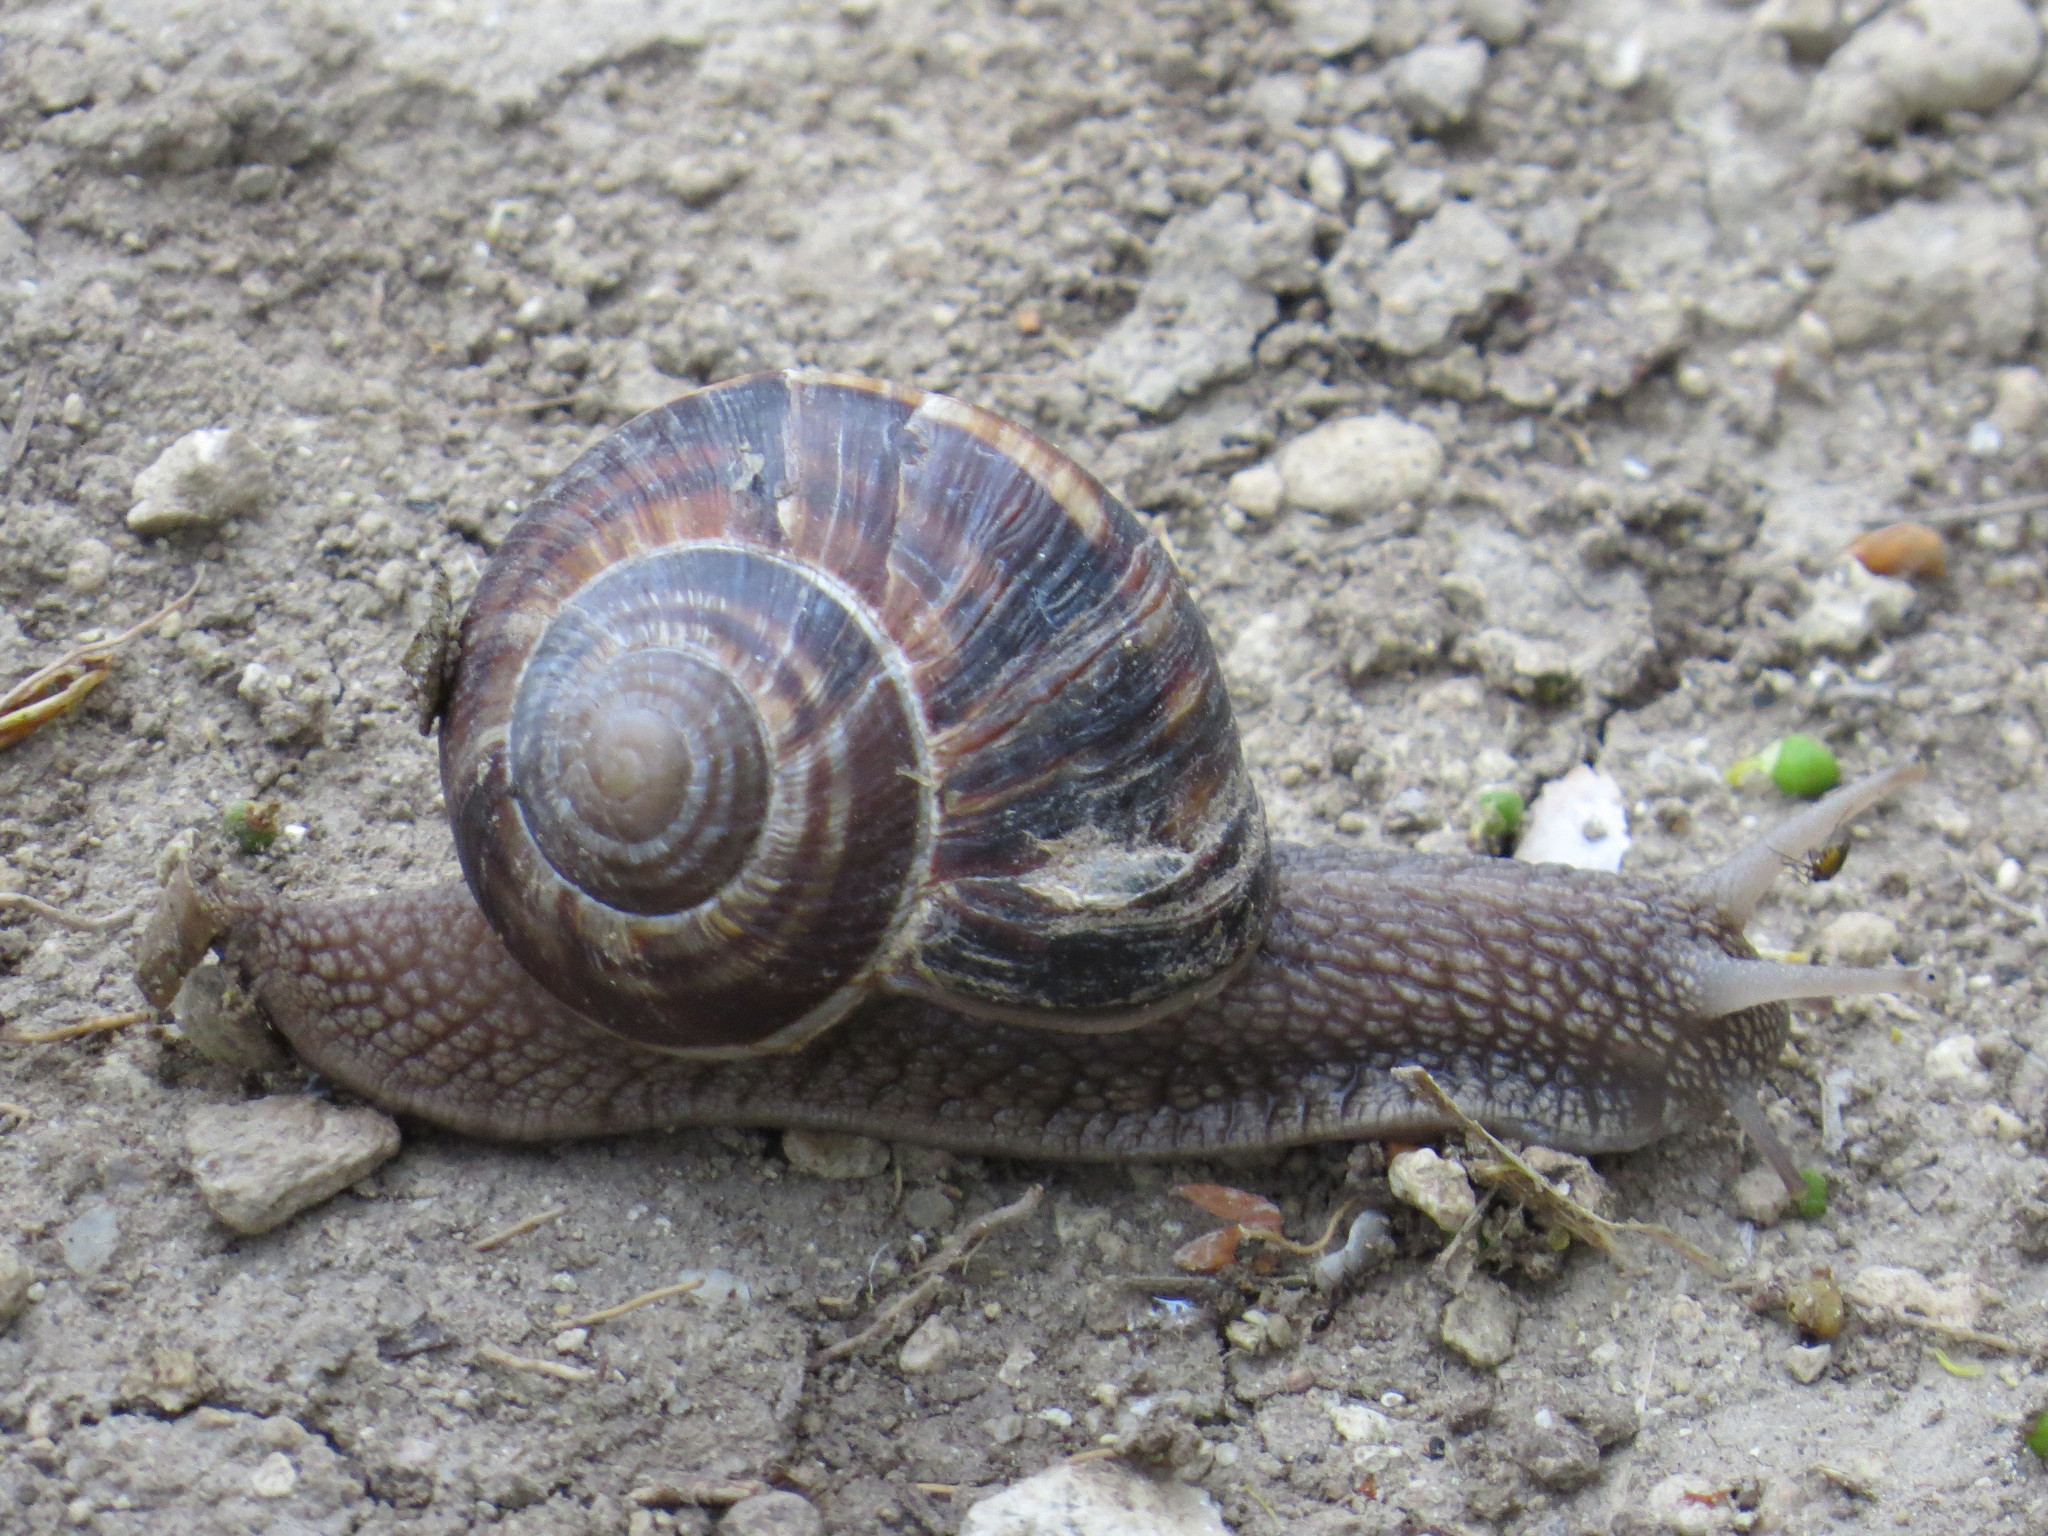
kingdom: Animalia
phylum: Mollusca
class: Gastropoda
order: Stylommatophora
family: Helicidae
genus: Helix
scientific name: Helix lucorum
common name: Turkish snail
